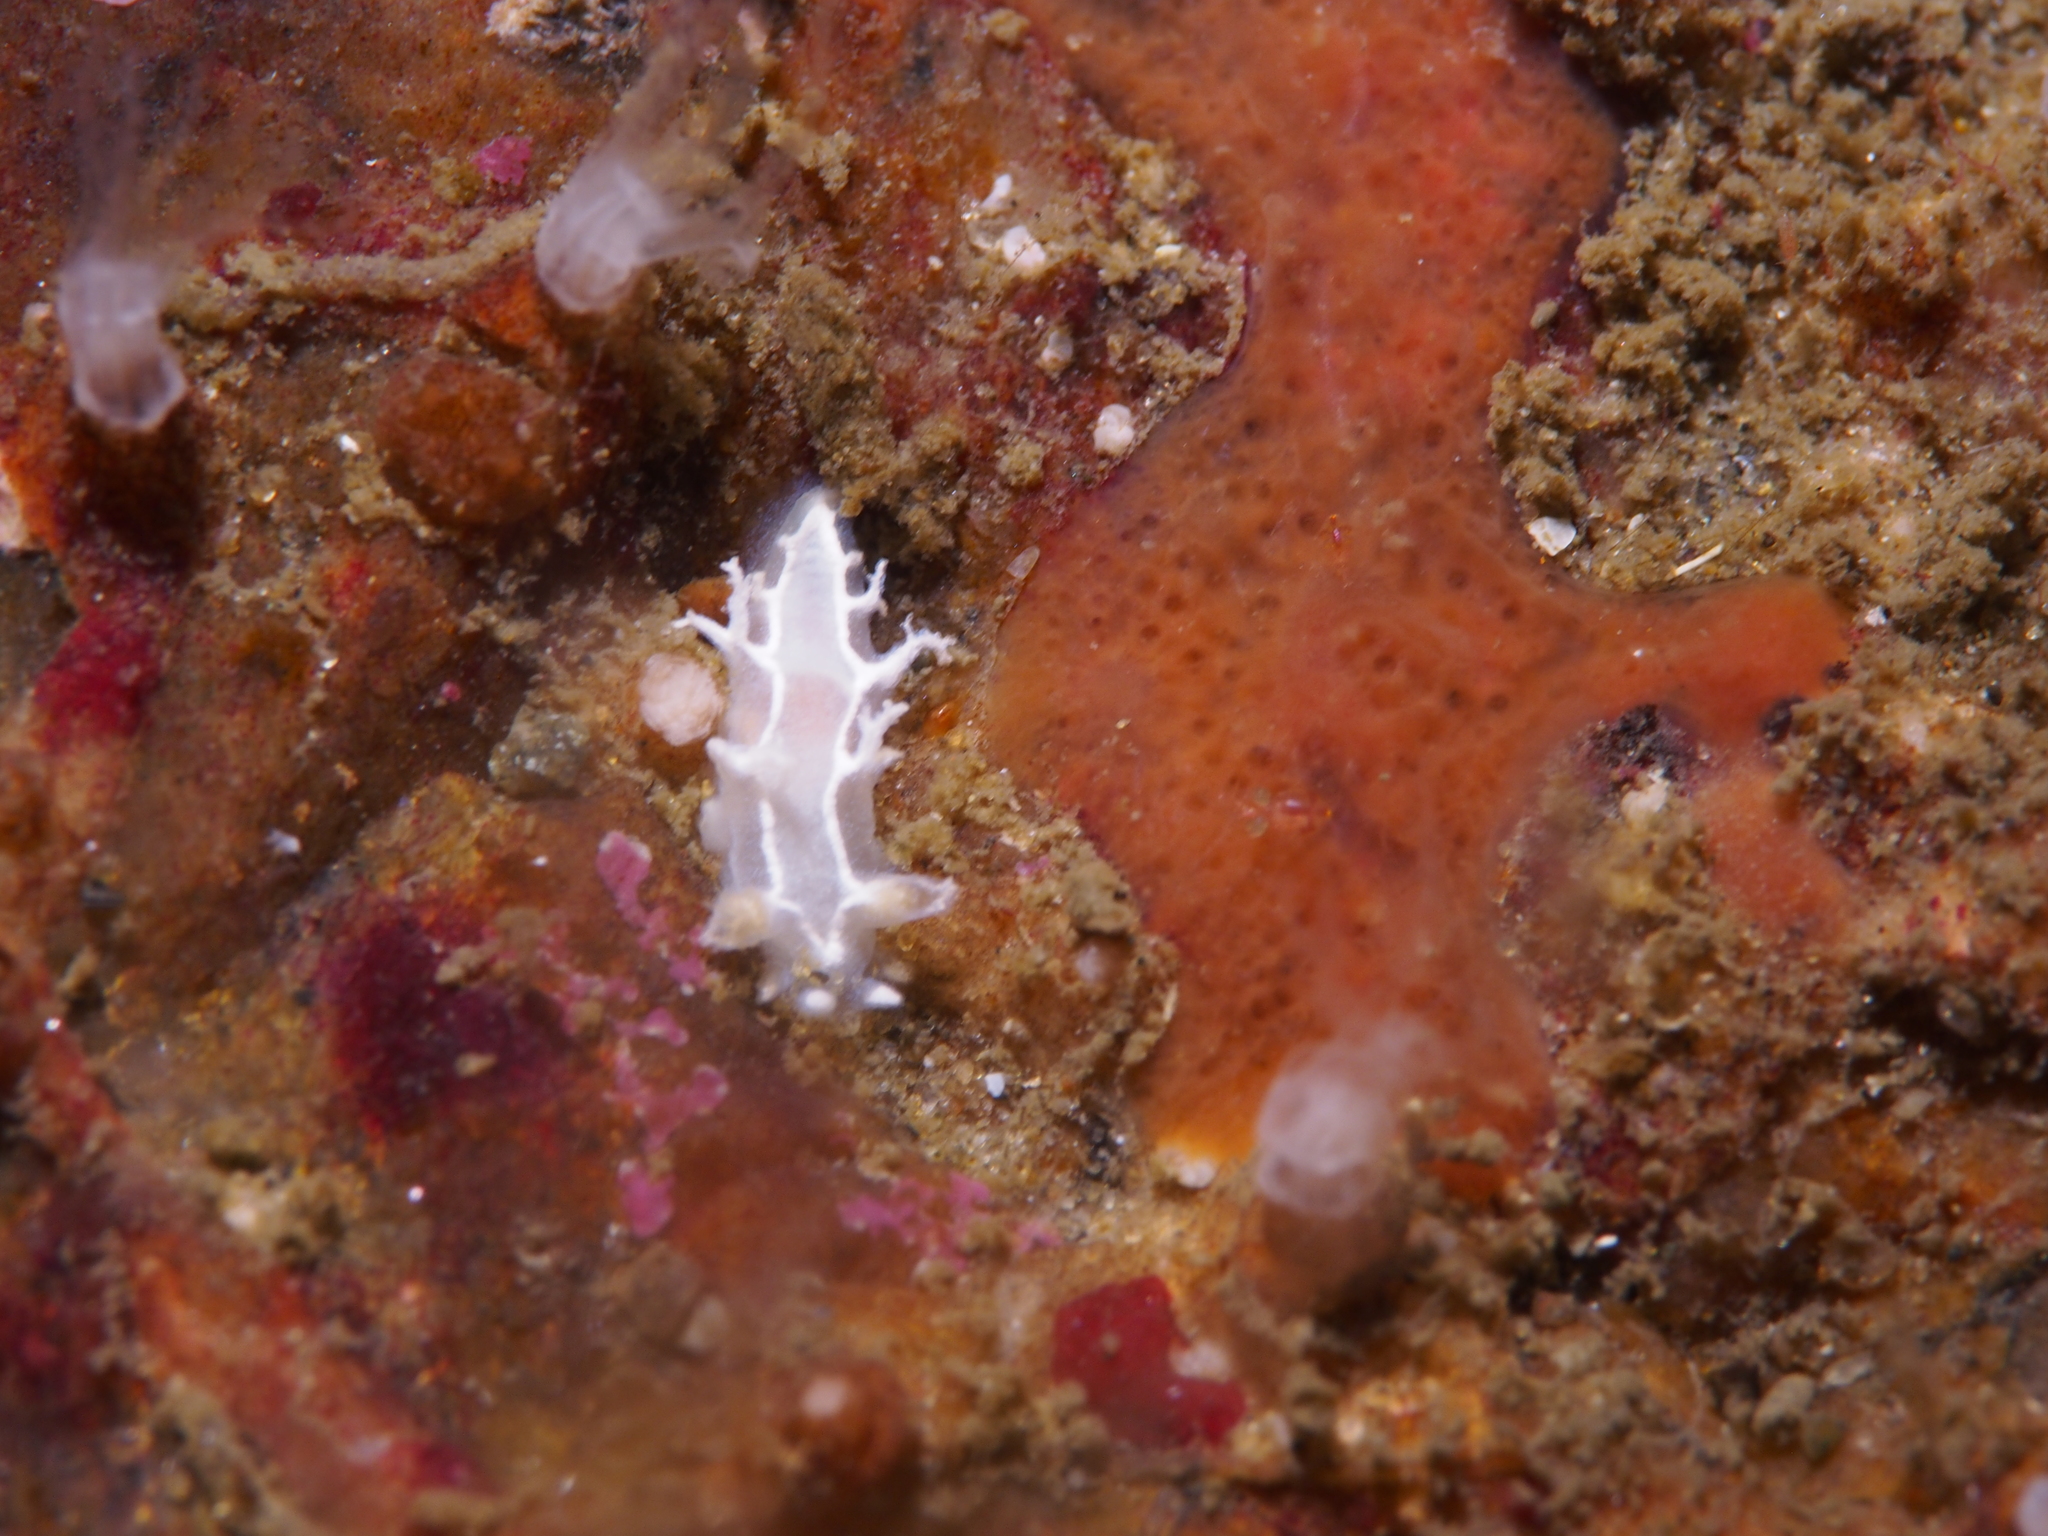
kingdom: Animalia
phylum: Mollusca
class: Gastropoda
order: Nudibranchia
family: Tritoniidae
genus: Duvaucelia
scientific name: Duvaucelia lineata
